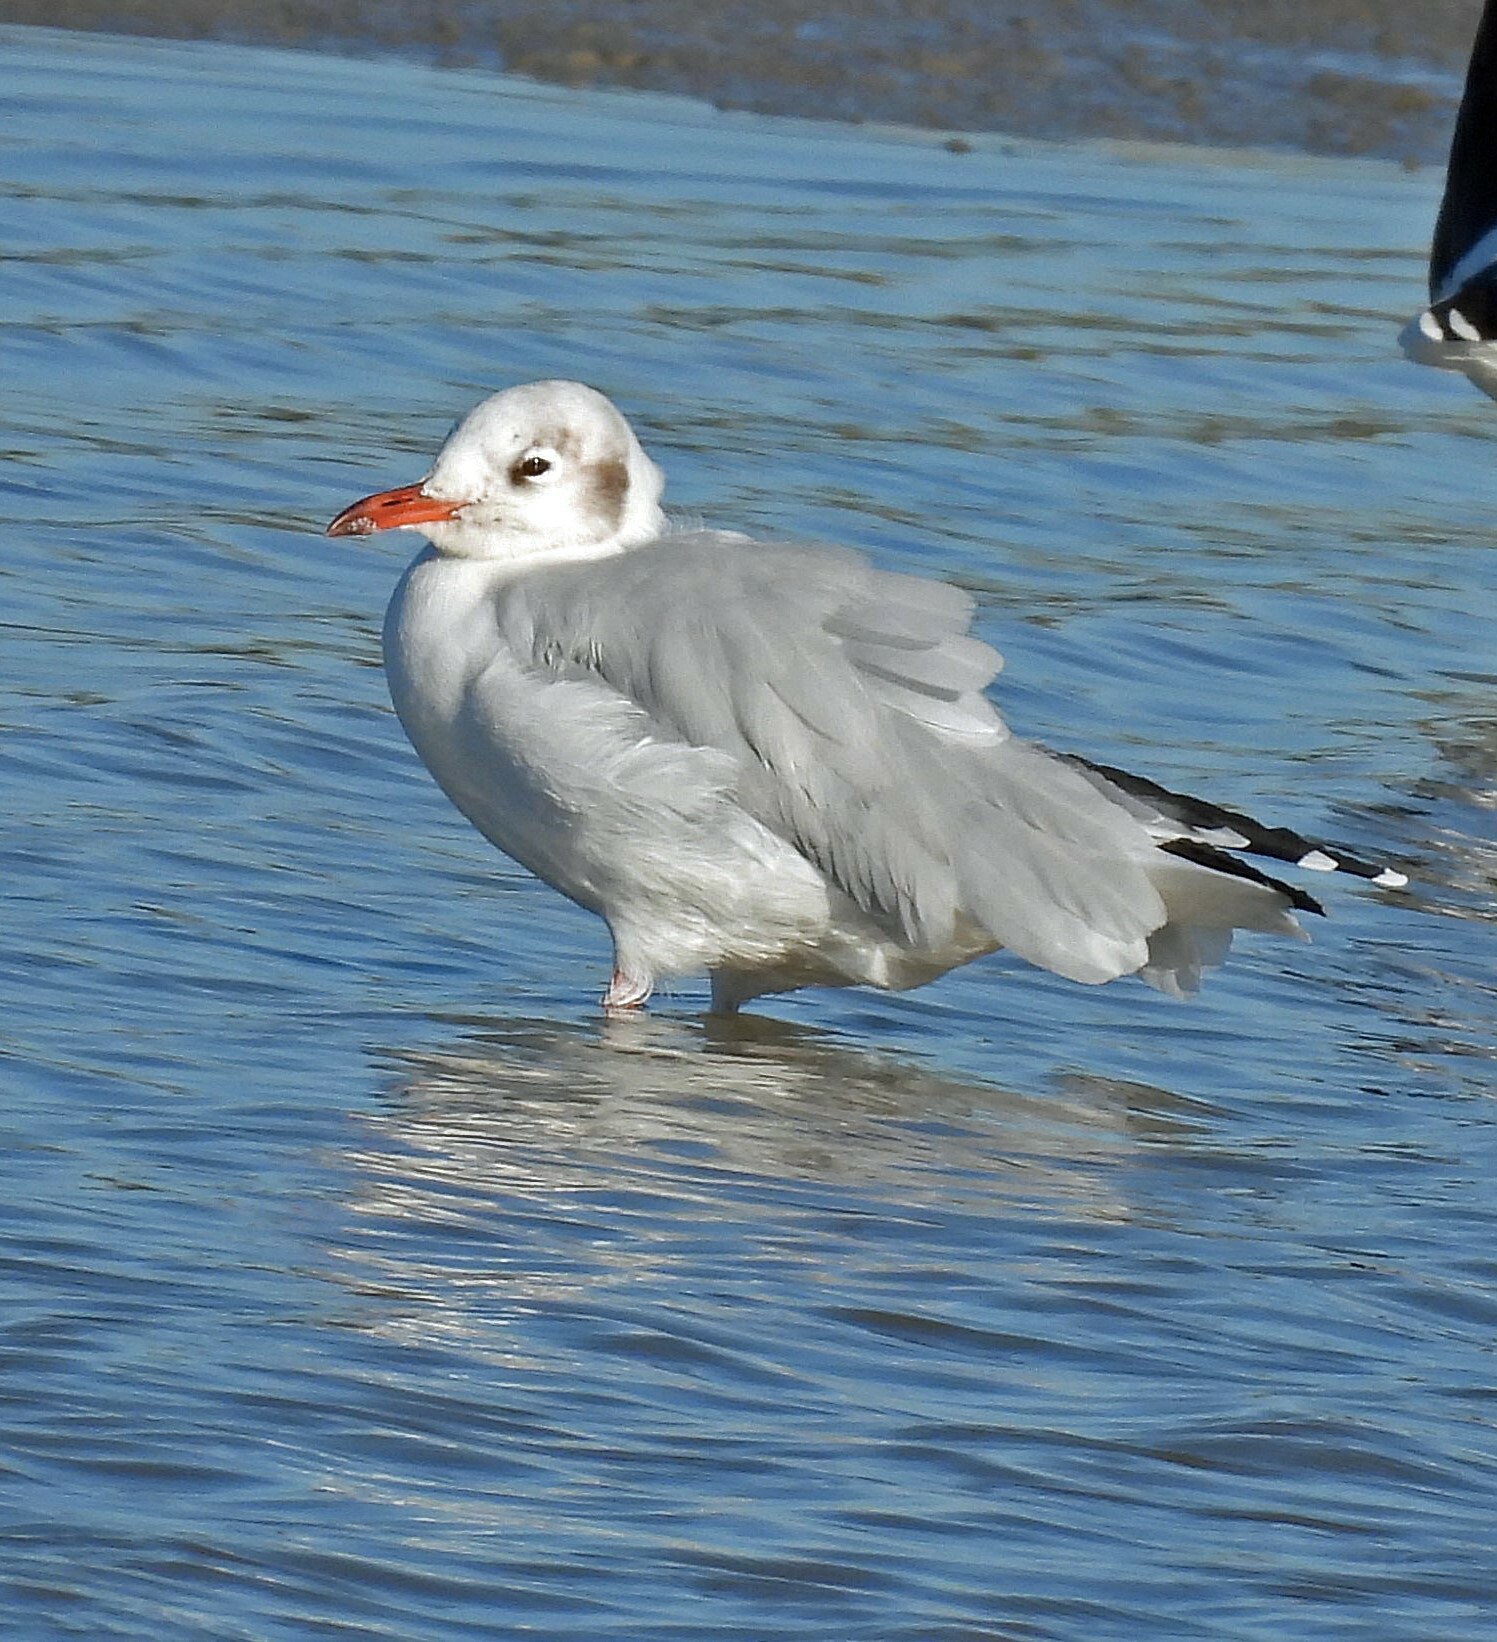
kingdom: Animalia
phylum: Chordata
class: Aves
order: Charadriiformes
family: Laridae
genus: Chroicocephalus
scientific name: Chroicocephalus maculipennis
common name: Brown-hooded gull
